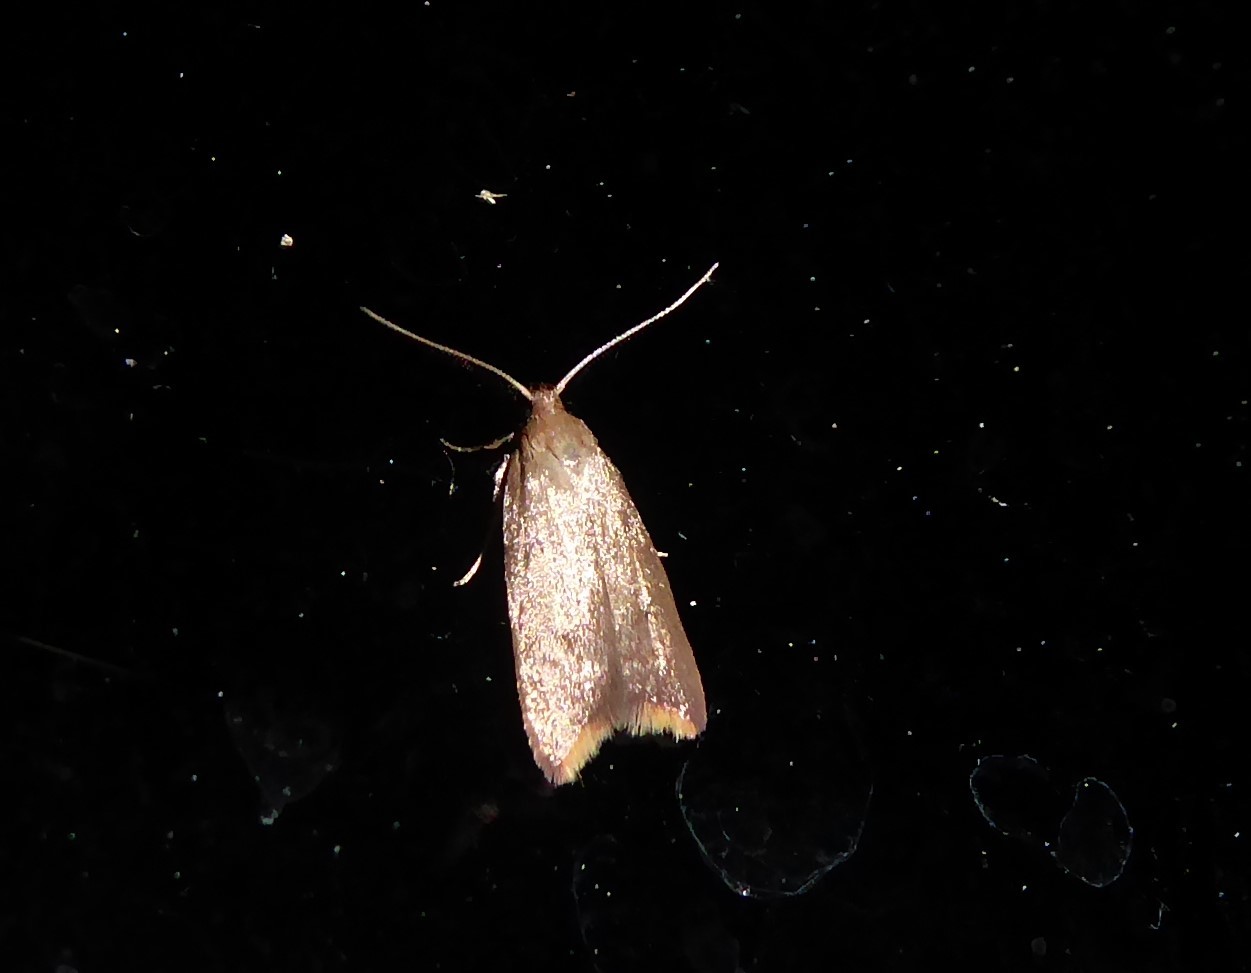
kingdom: Animalia
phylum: Arthropoda
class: Insecta
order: Lepidoptera
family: Oecophoridae
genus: Tachystola
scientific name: Tachystola acroxantha
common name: Ruddy streak
